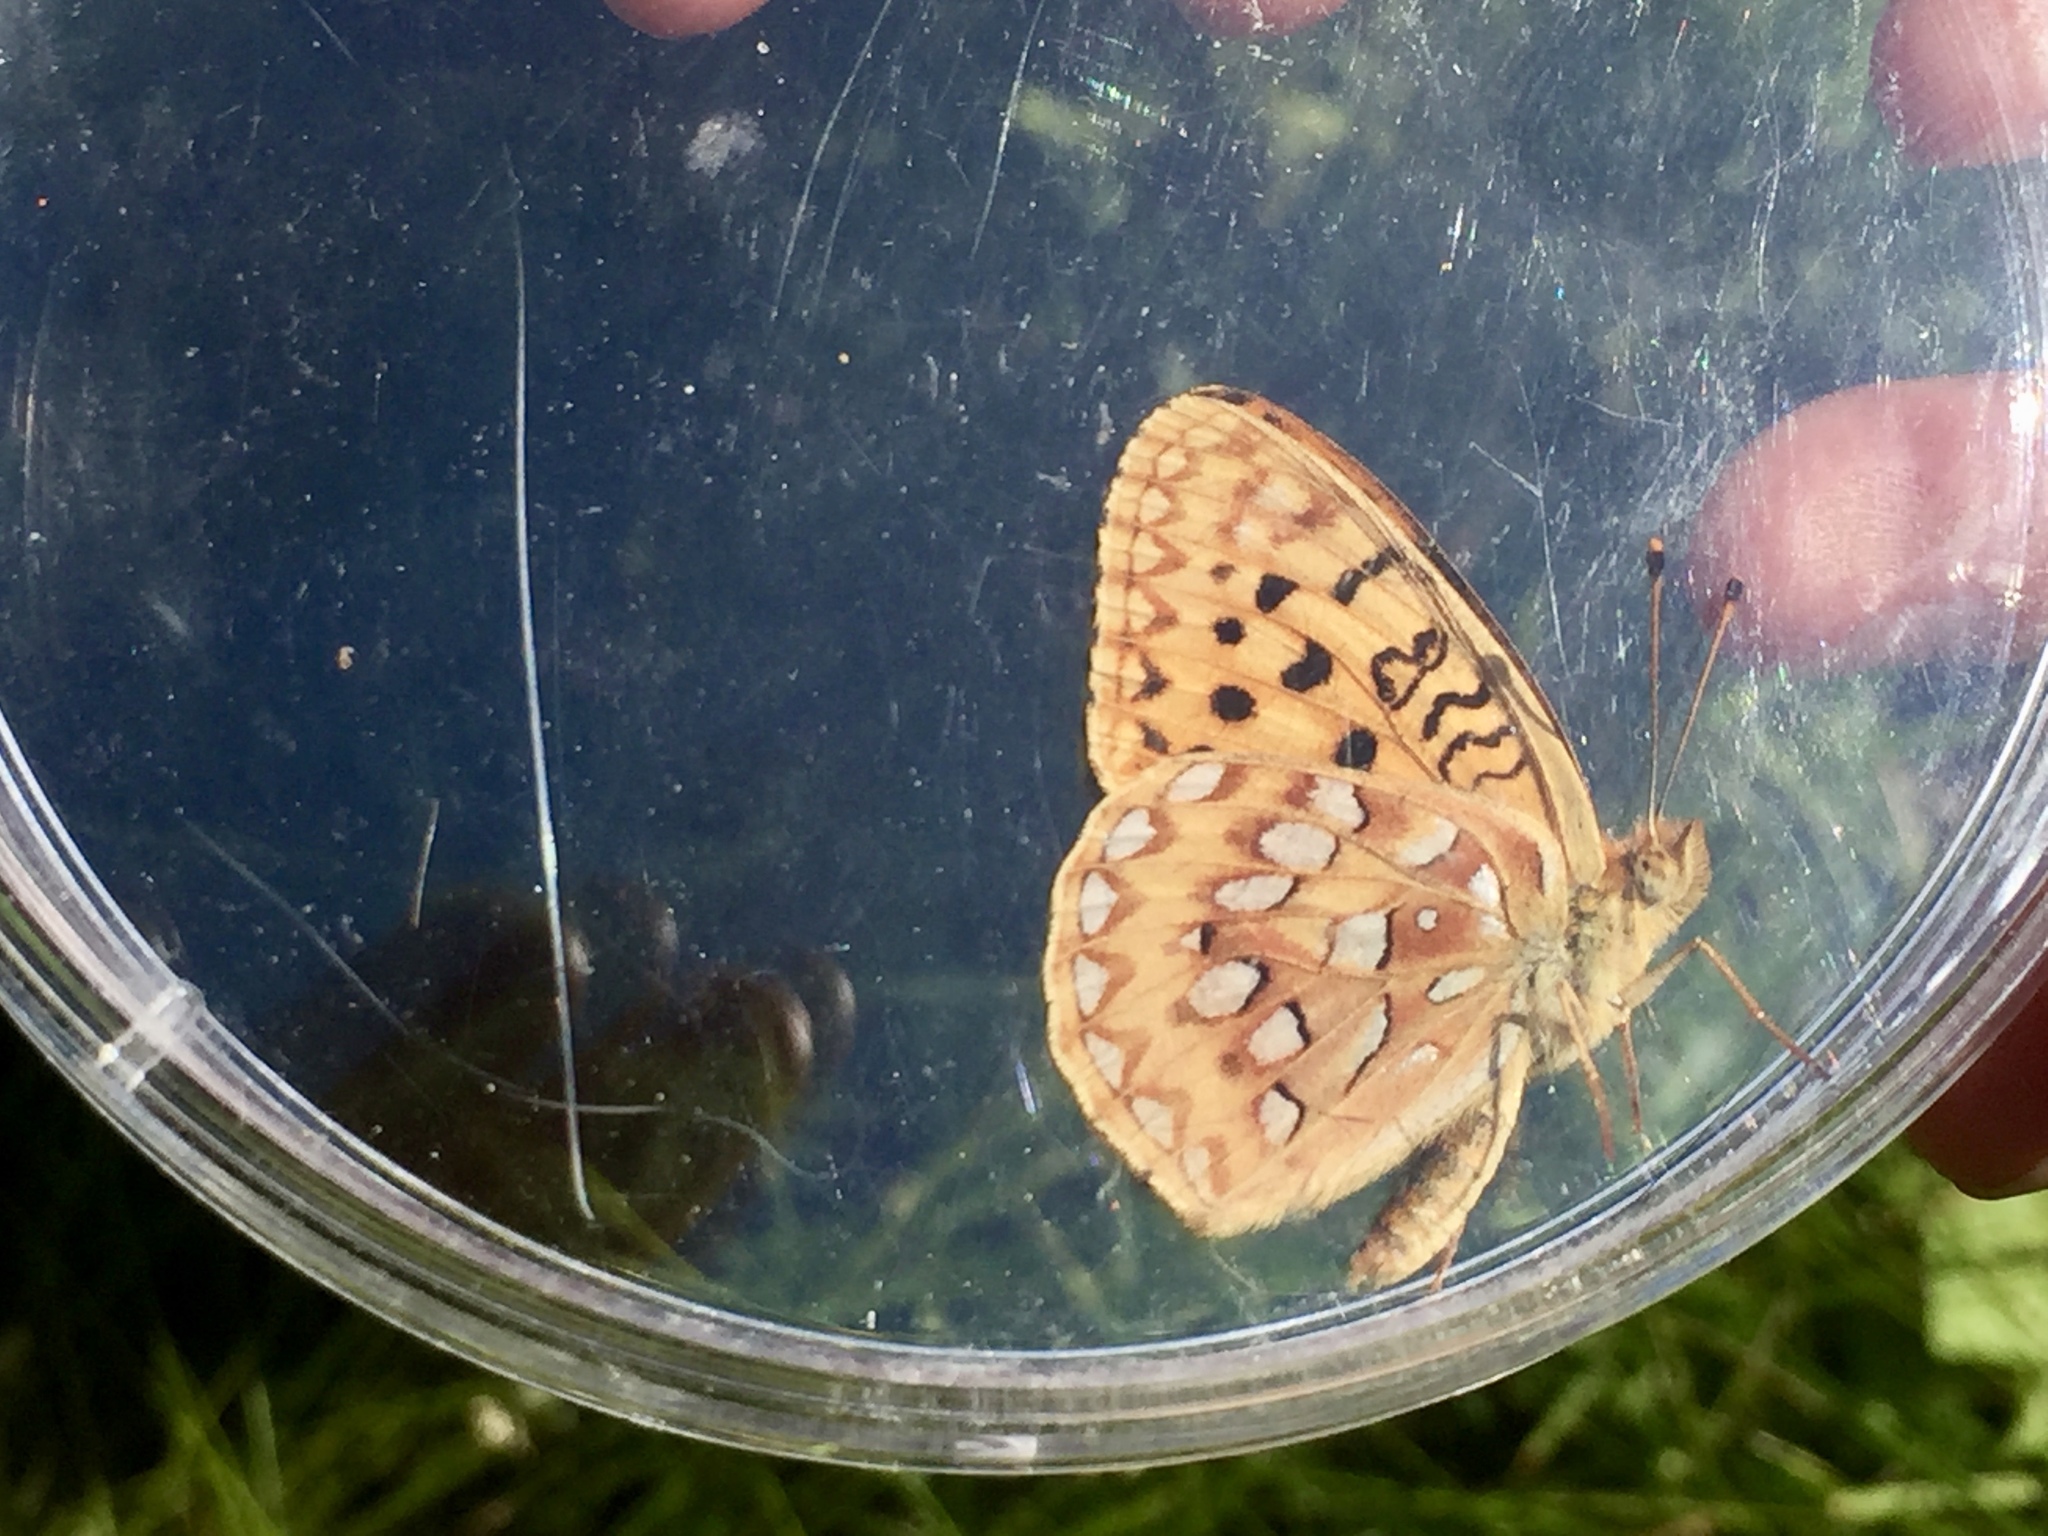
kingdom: Animalia
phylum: Arthropoda
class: Insecta
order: Lepidoptera
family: Nymphalidae
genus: Speyeria
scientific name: Speyeria egleis
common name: Great basin fritillary
